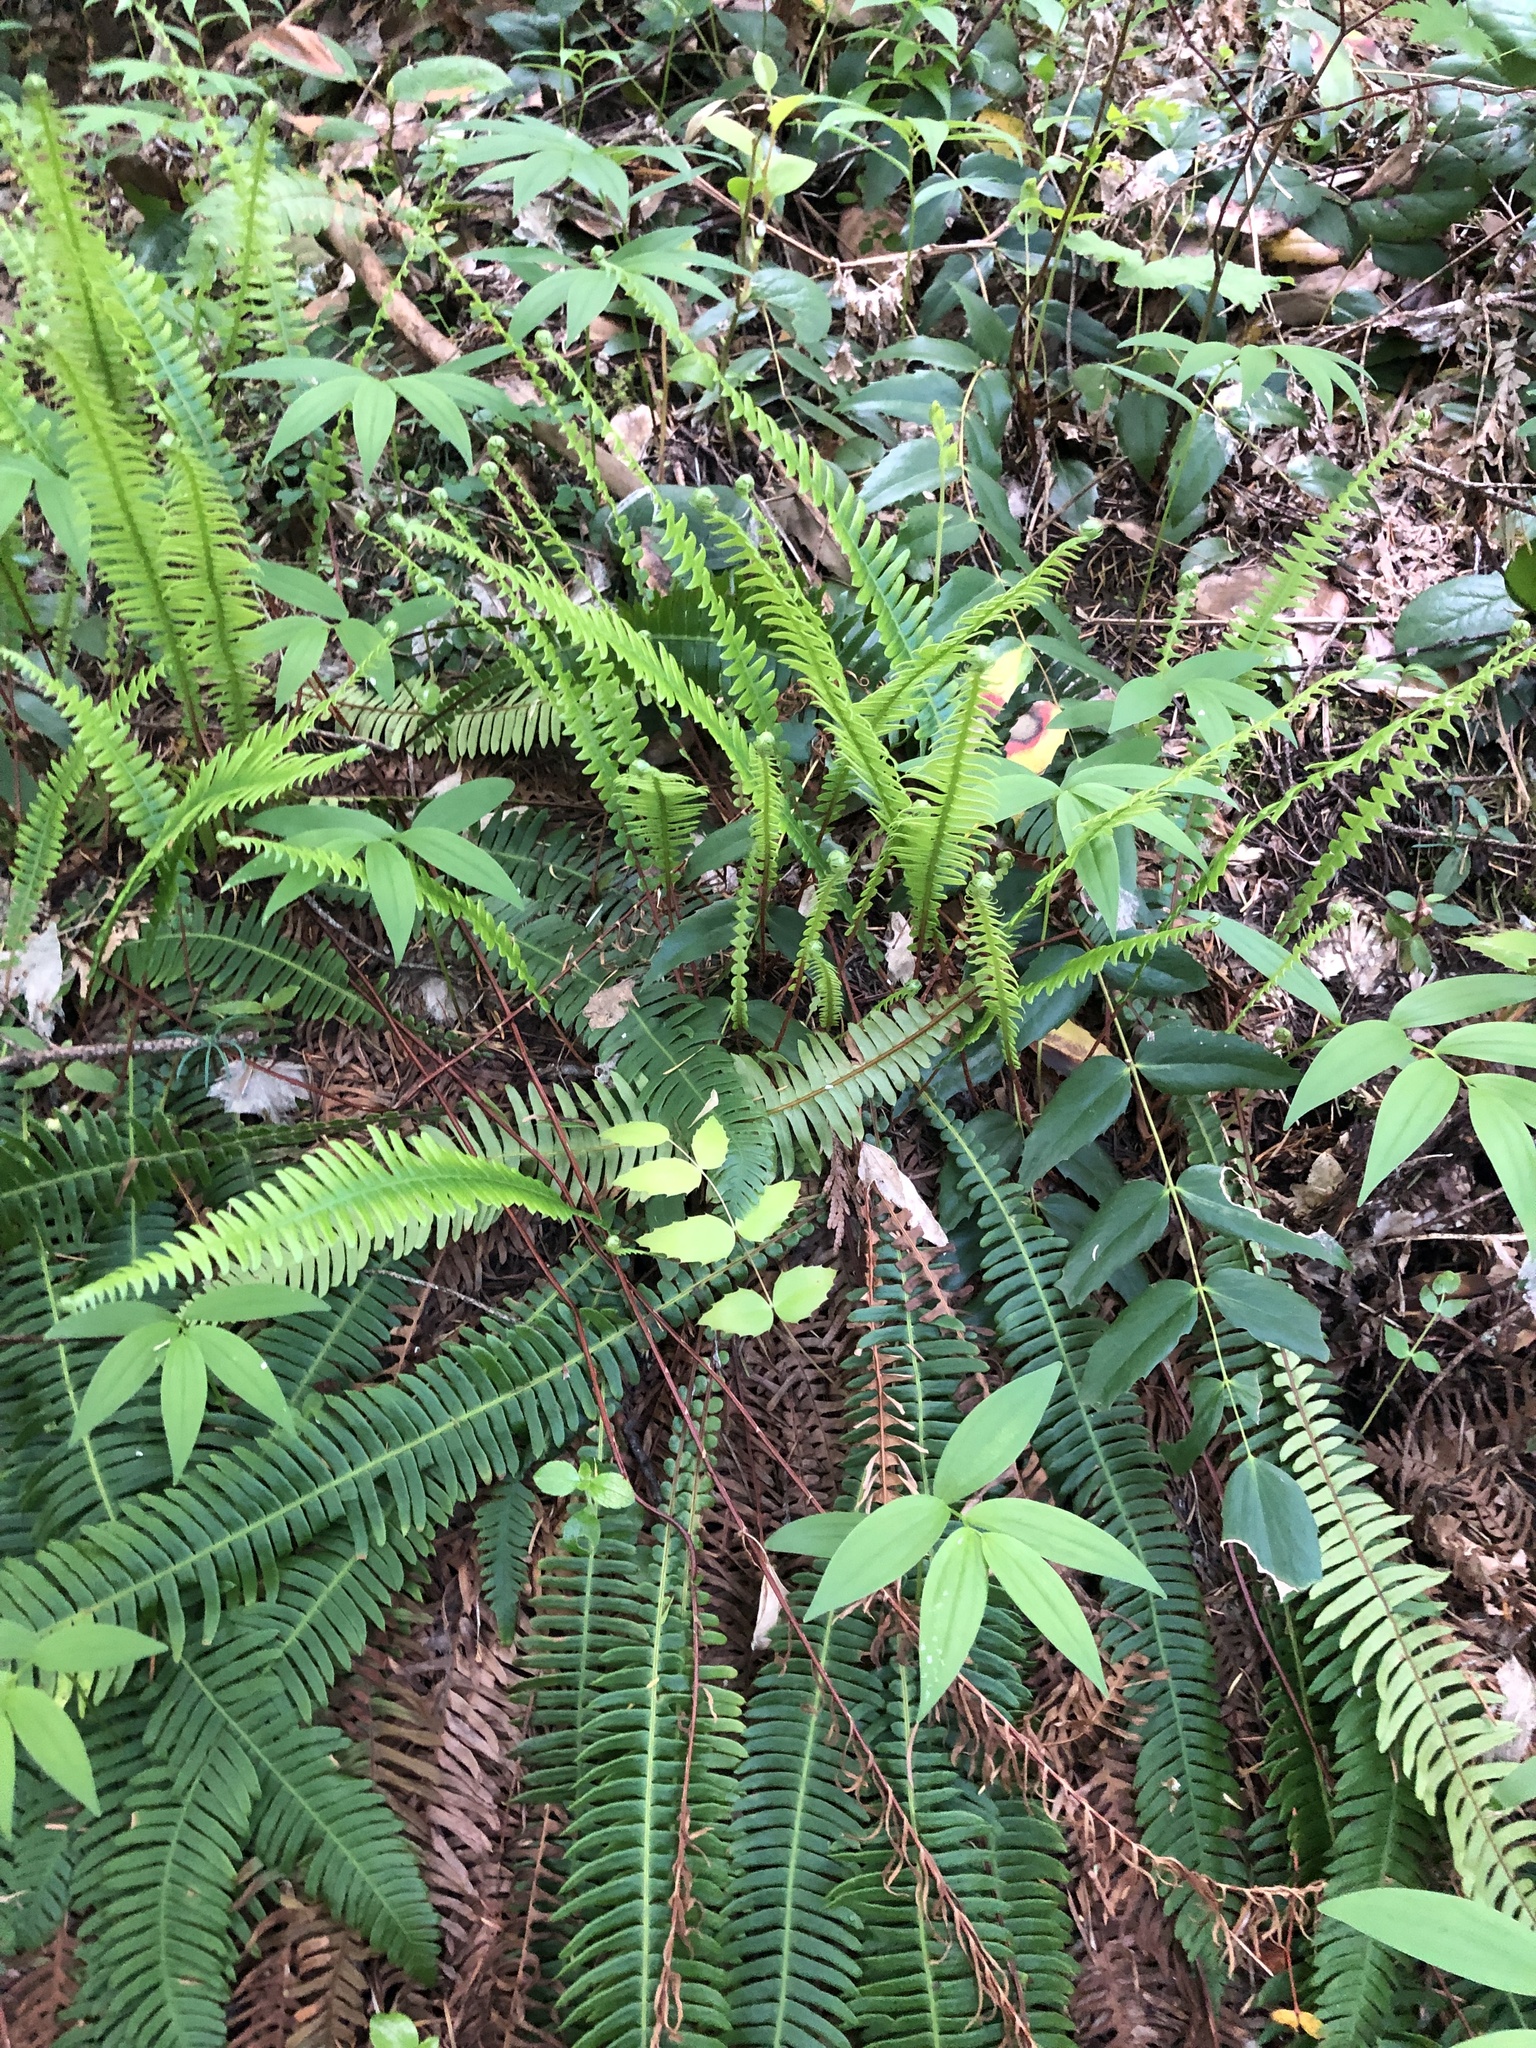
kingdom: Plantae
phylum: Tracheophyta
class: Polypodiopsida
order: Polypodiales
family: Blechnaceae
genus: Struthiopteris
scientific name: Struthiopteris spicant
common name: Deer fern
